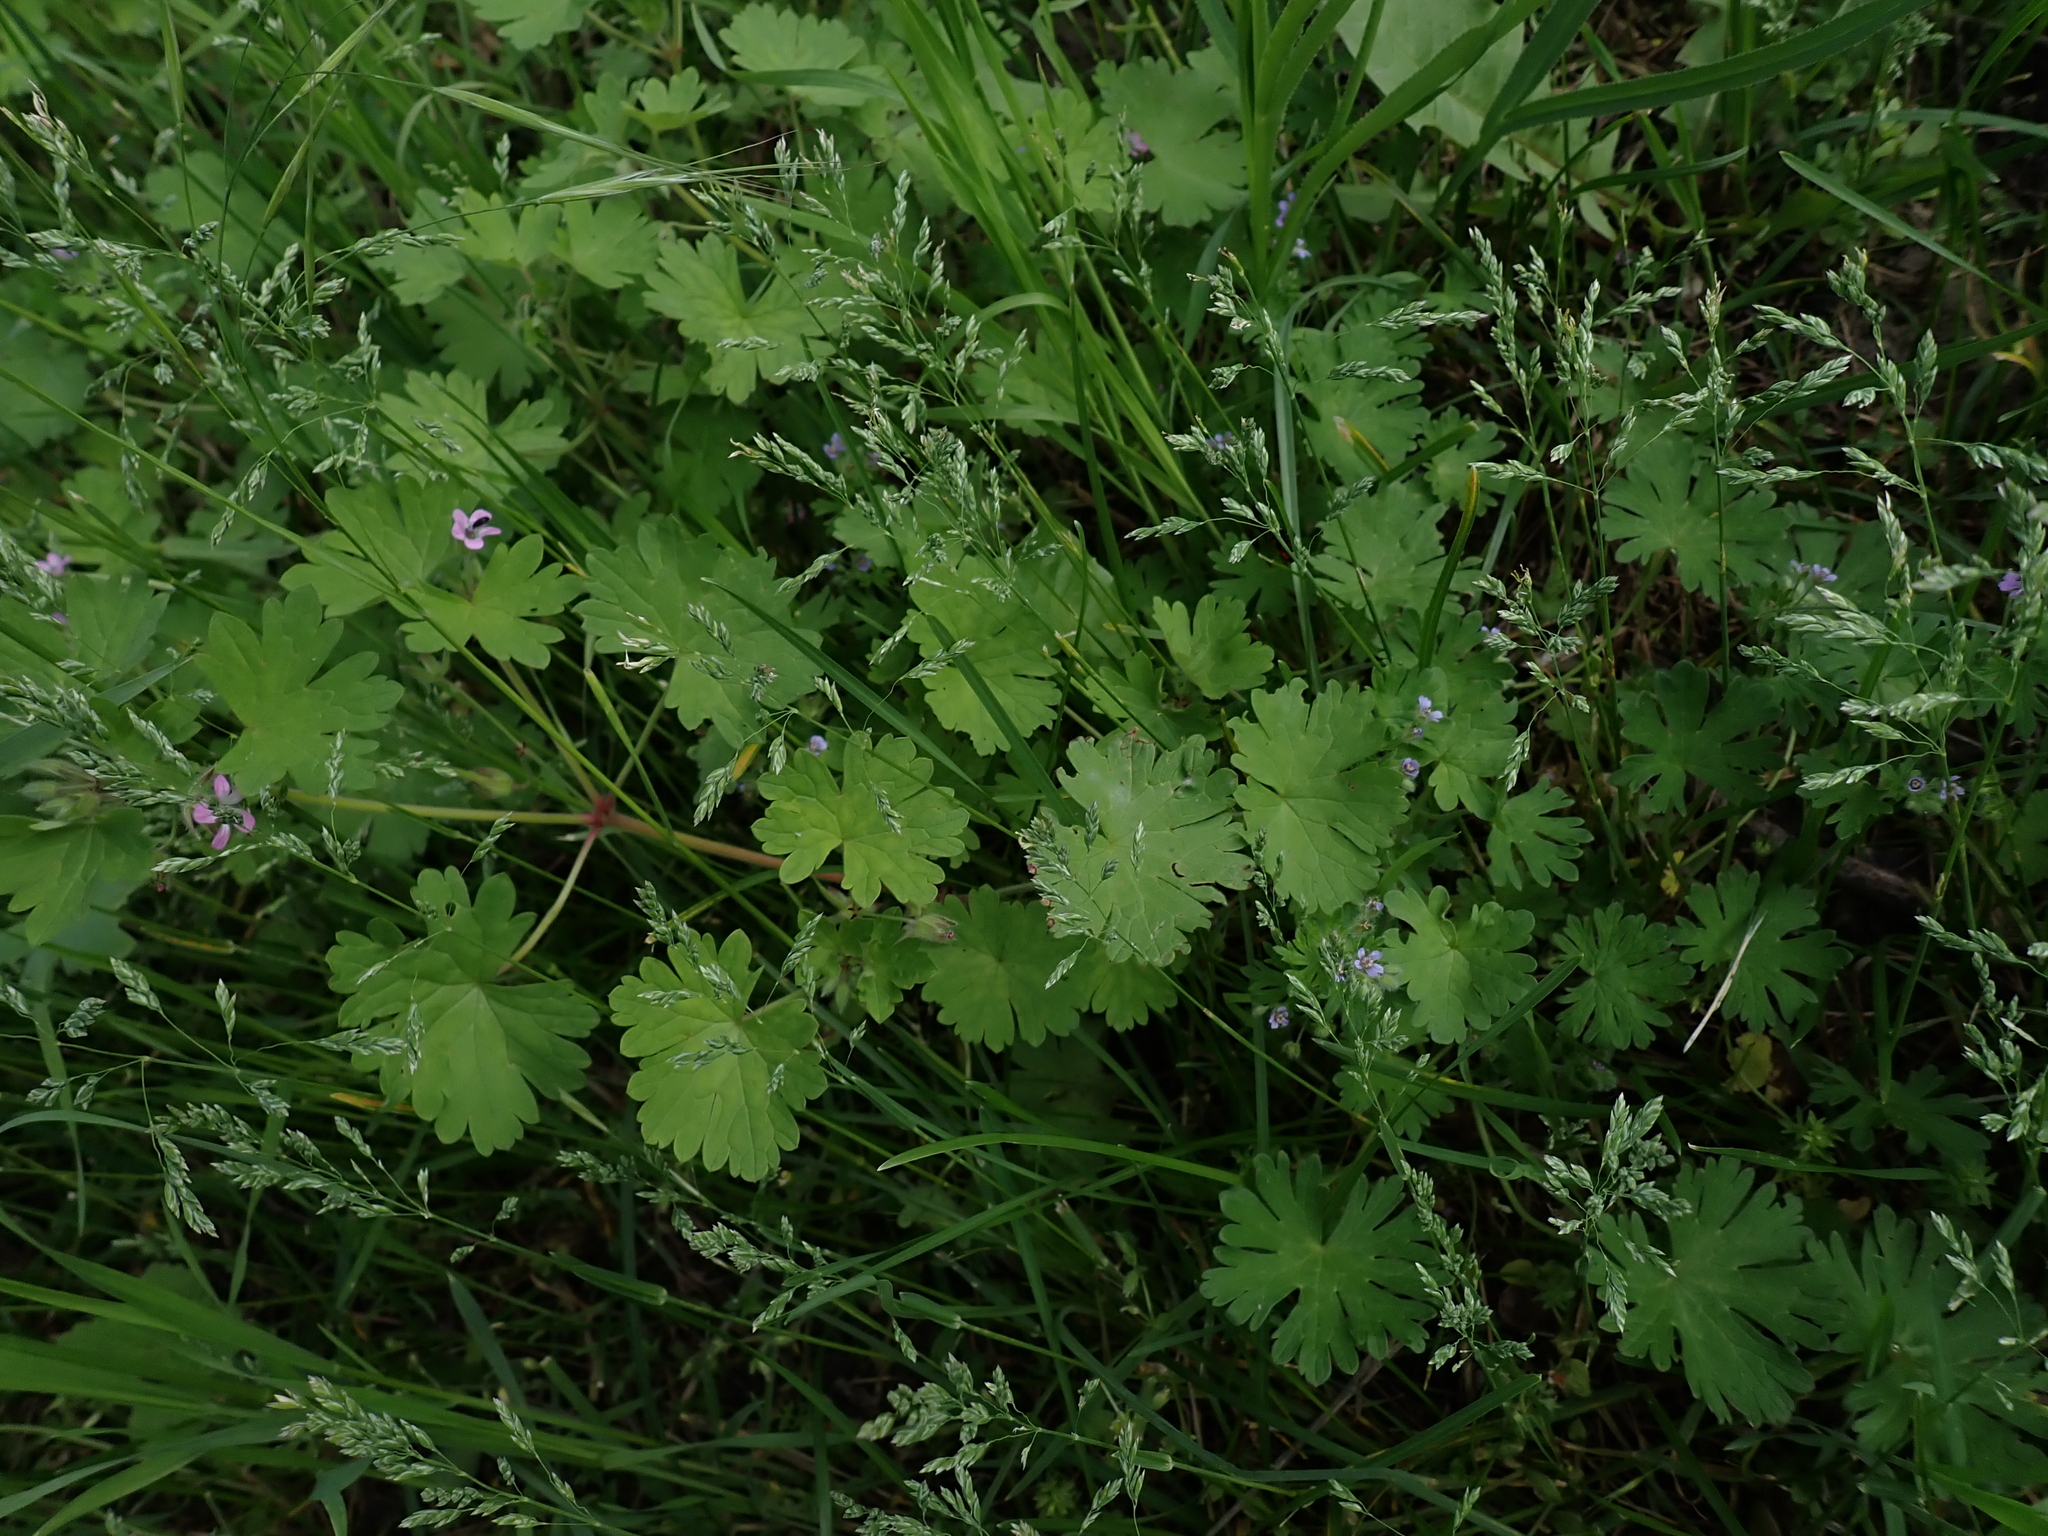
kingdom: Plantae
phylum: Tracheophyta
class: Magnoliopsida
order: Geraniales
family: Geraniaceae
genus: Geranium
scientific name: Geranium rotundifolium
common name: Round-leaved crane's-bill
